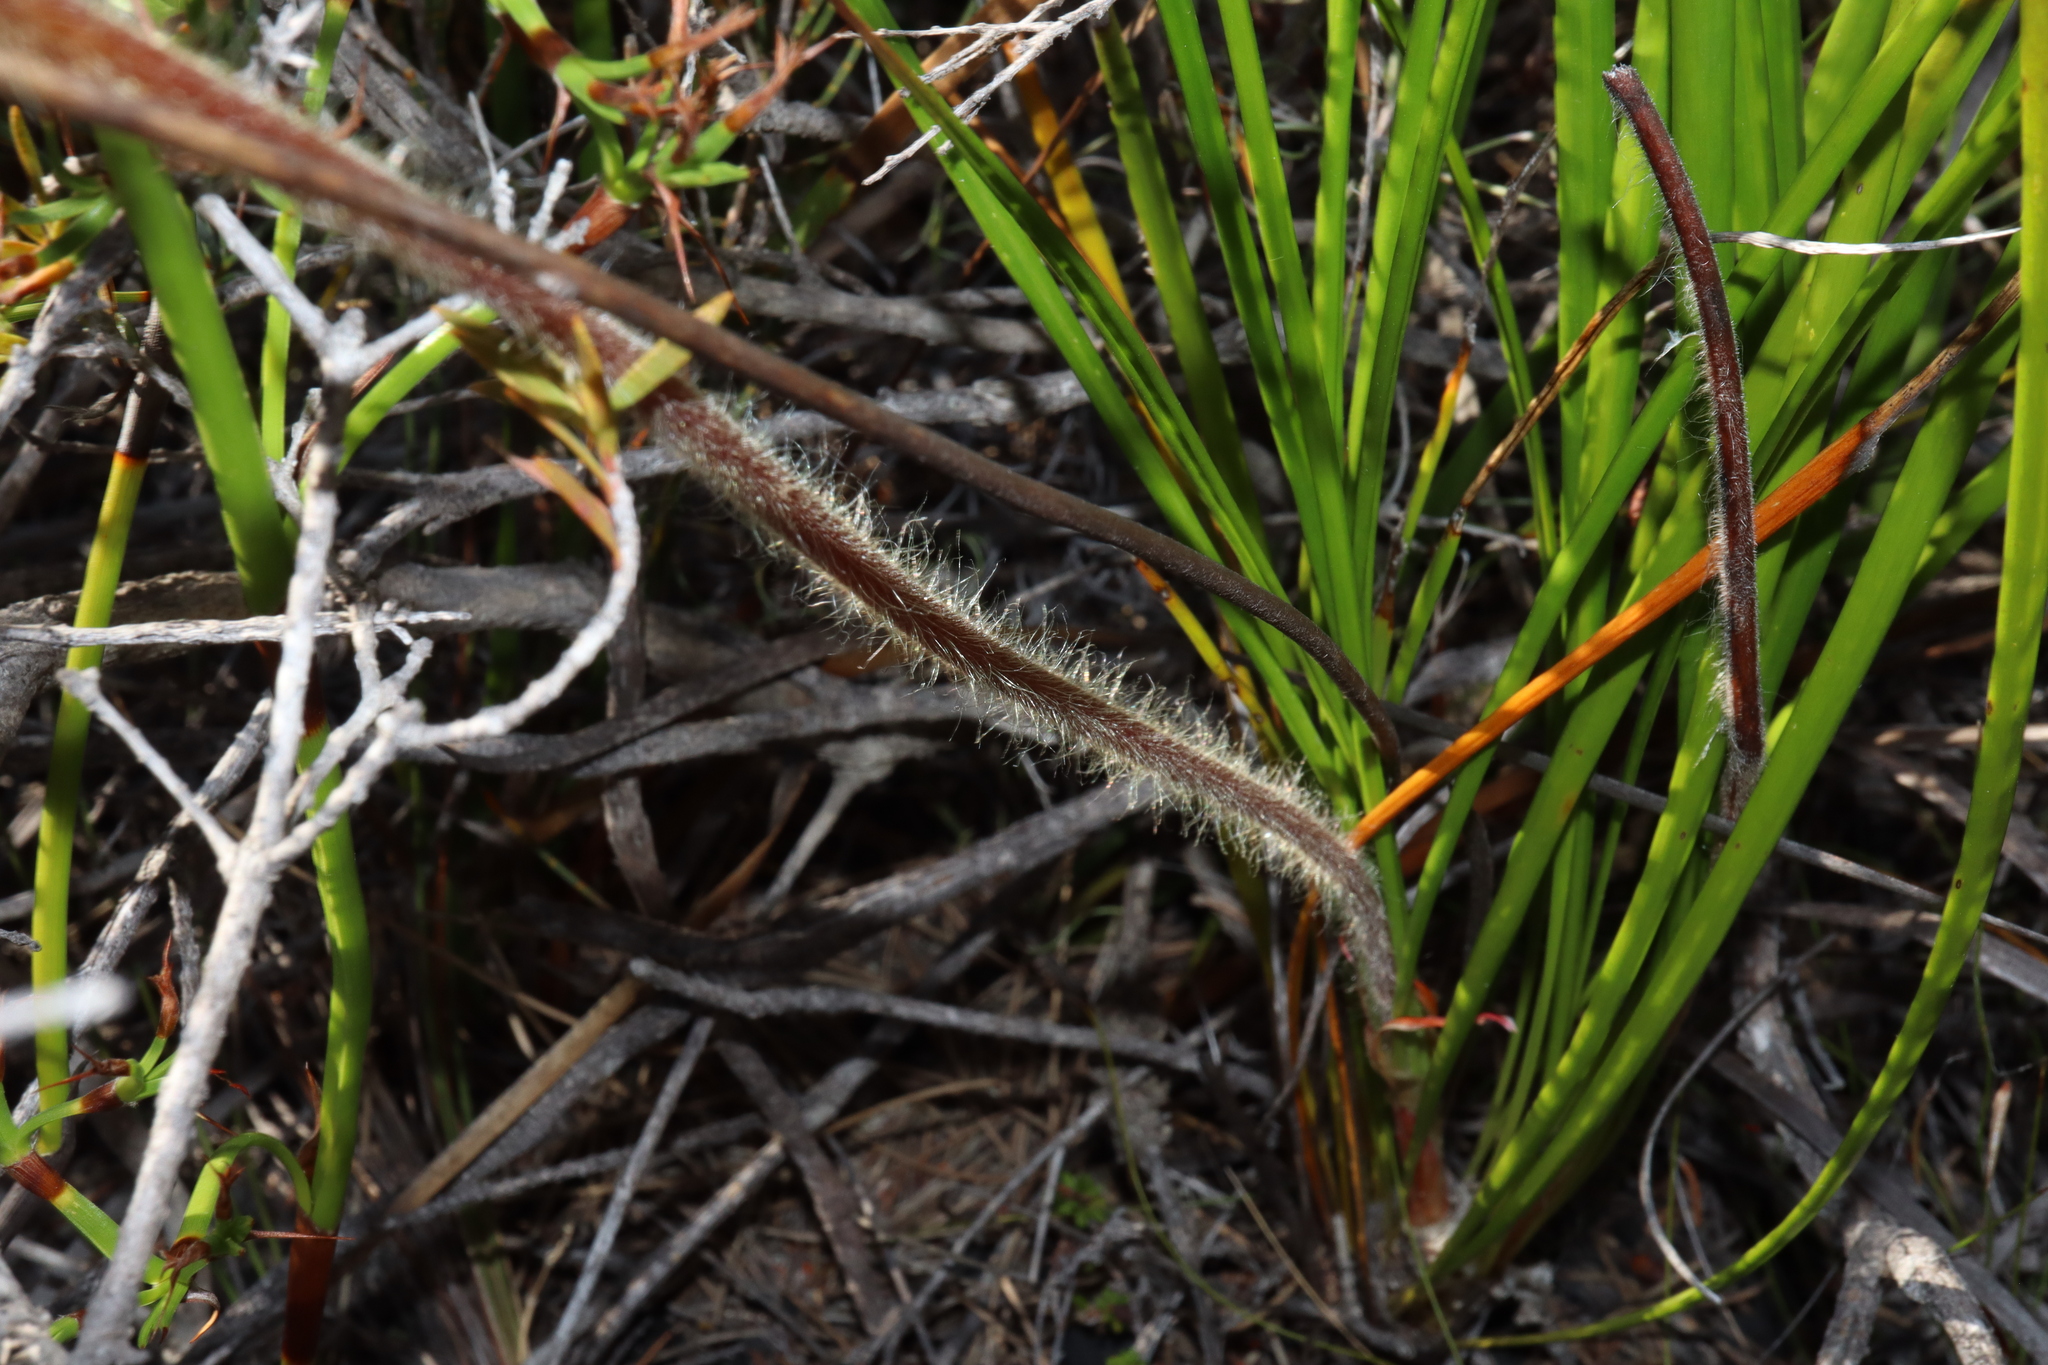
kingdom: Plantae
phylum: Tracheophyta
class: Magnoliopsida
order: Asterales
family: Stylidiaceae
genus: Stylidium
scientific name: Stylidium pilosum
